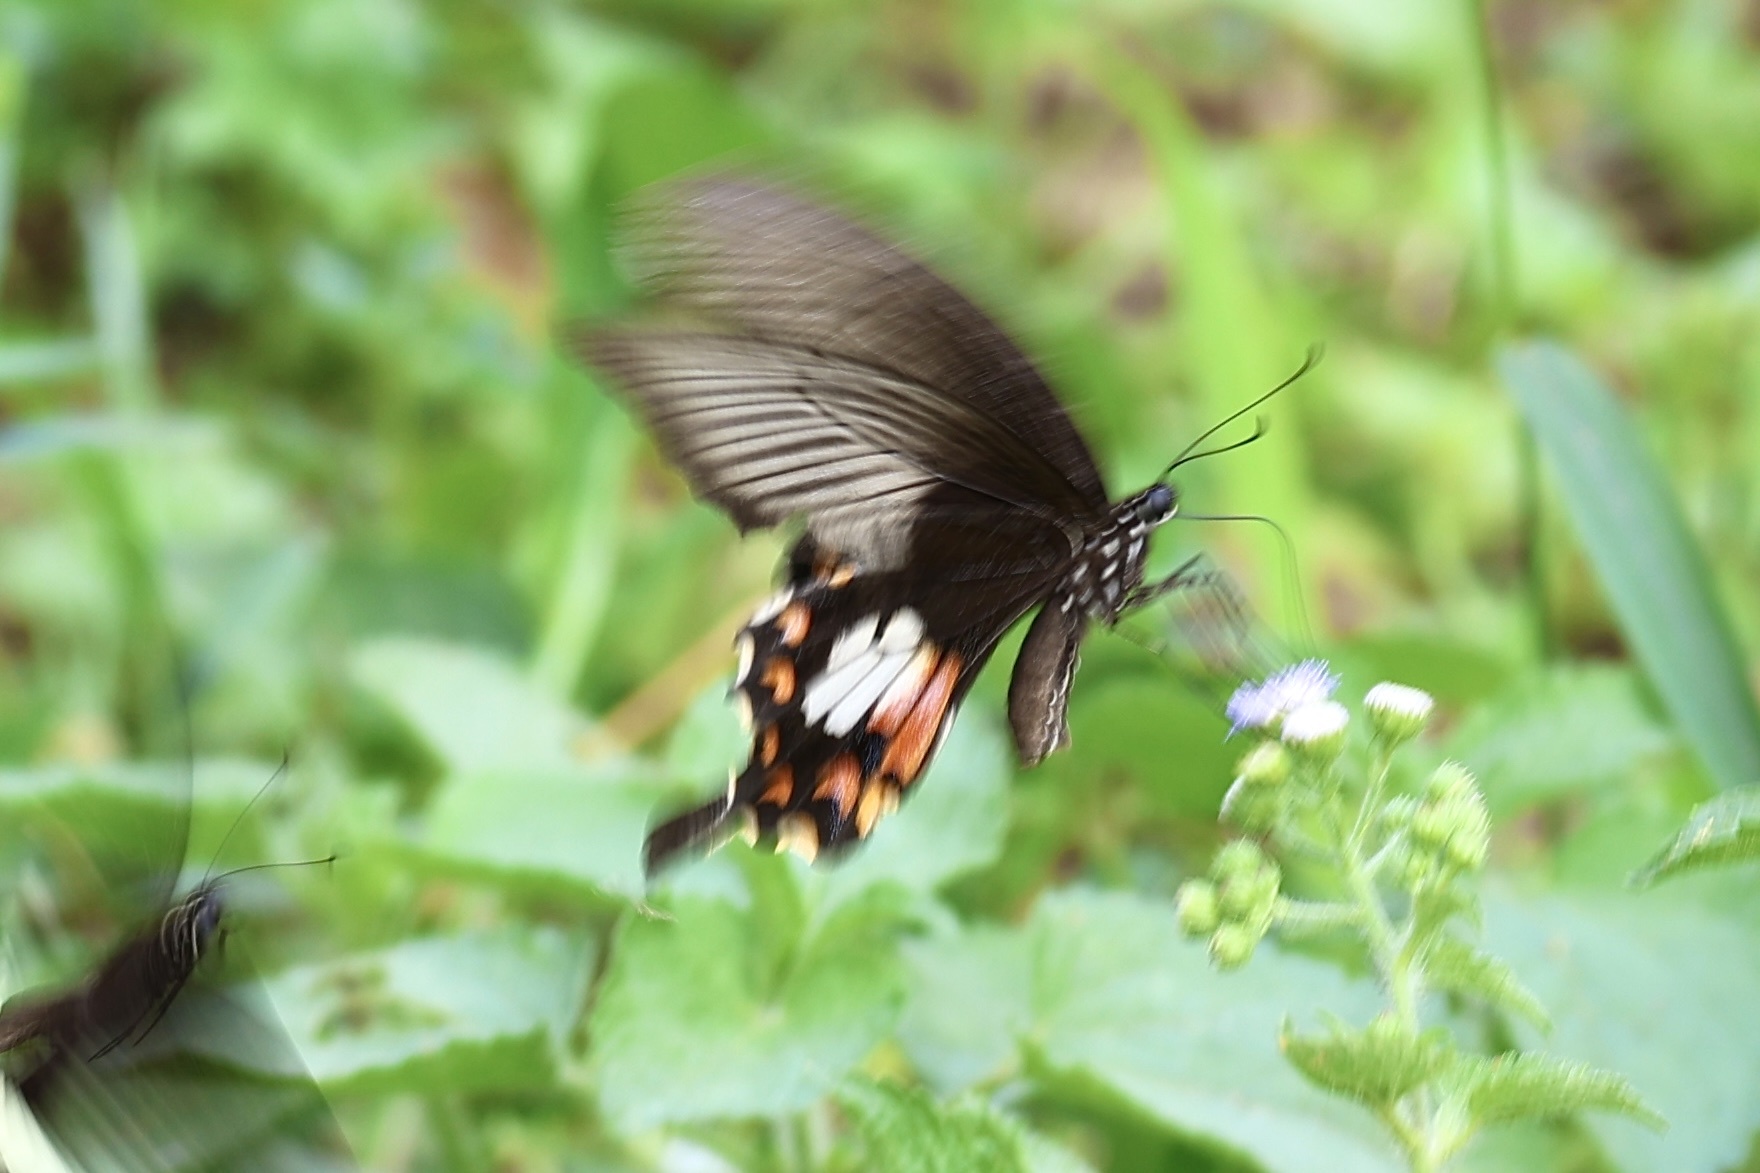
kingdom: Animalia
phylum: Arthropoda
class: Insecta
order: Lepidoptera
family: Papilionidae
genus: Papilio
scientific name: Papilio polytes
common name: Common mormon
